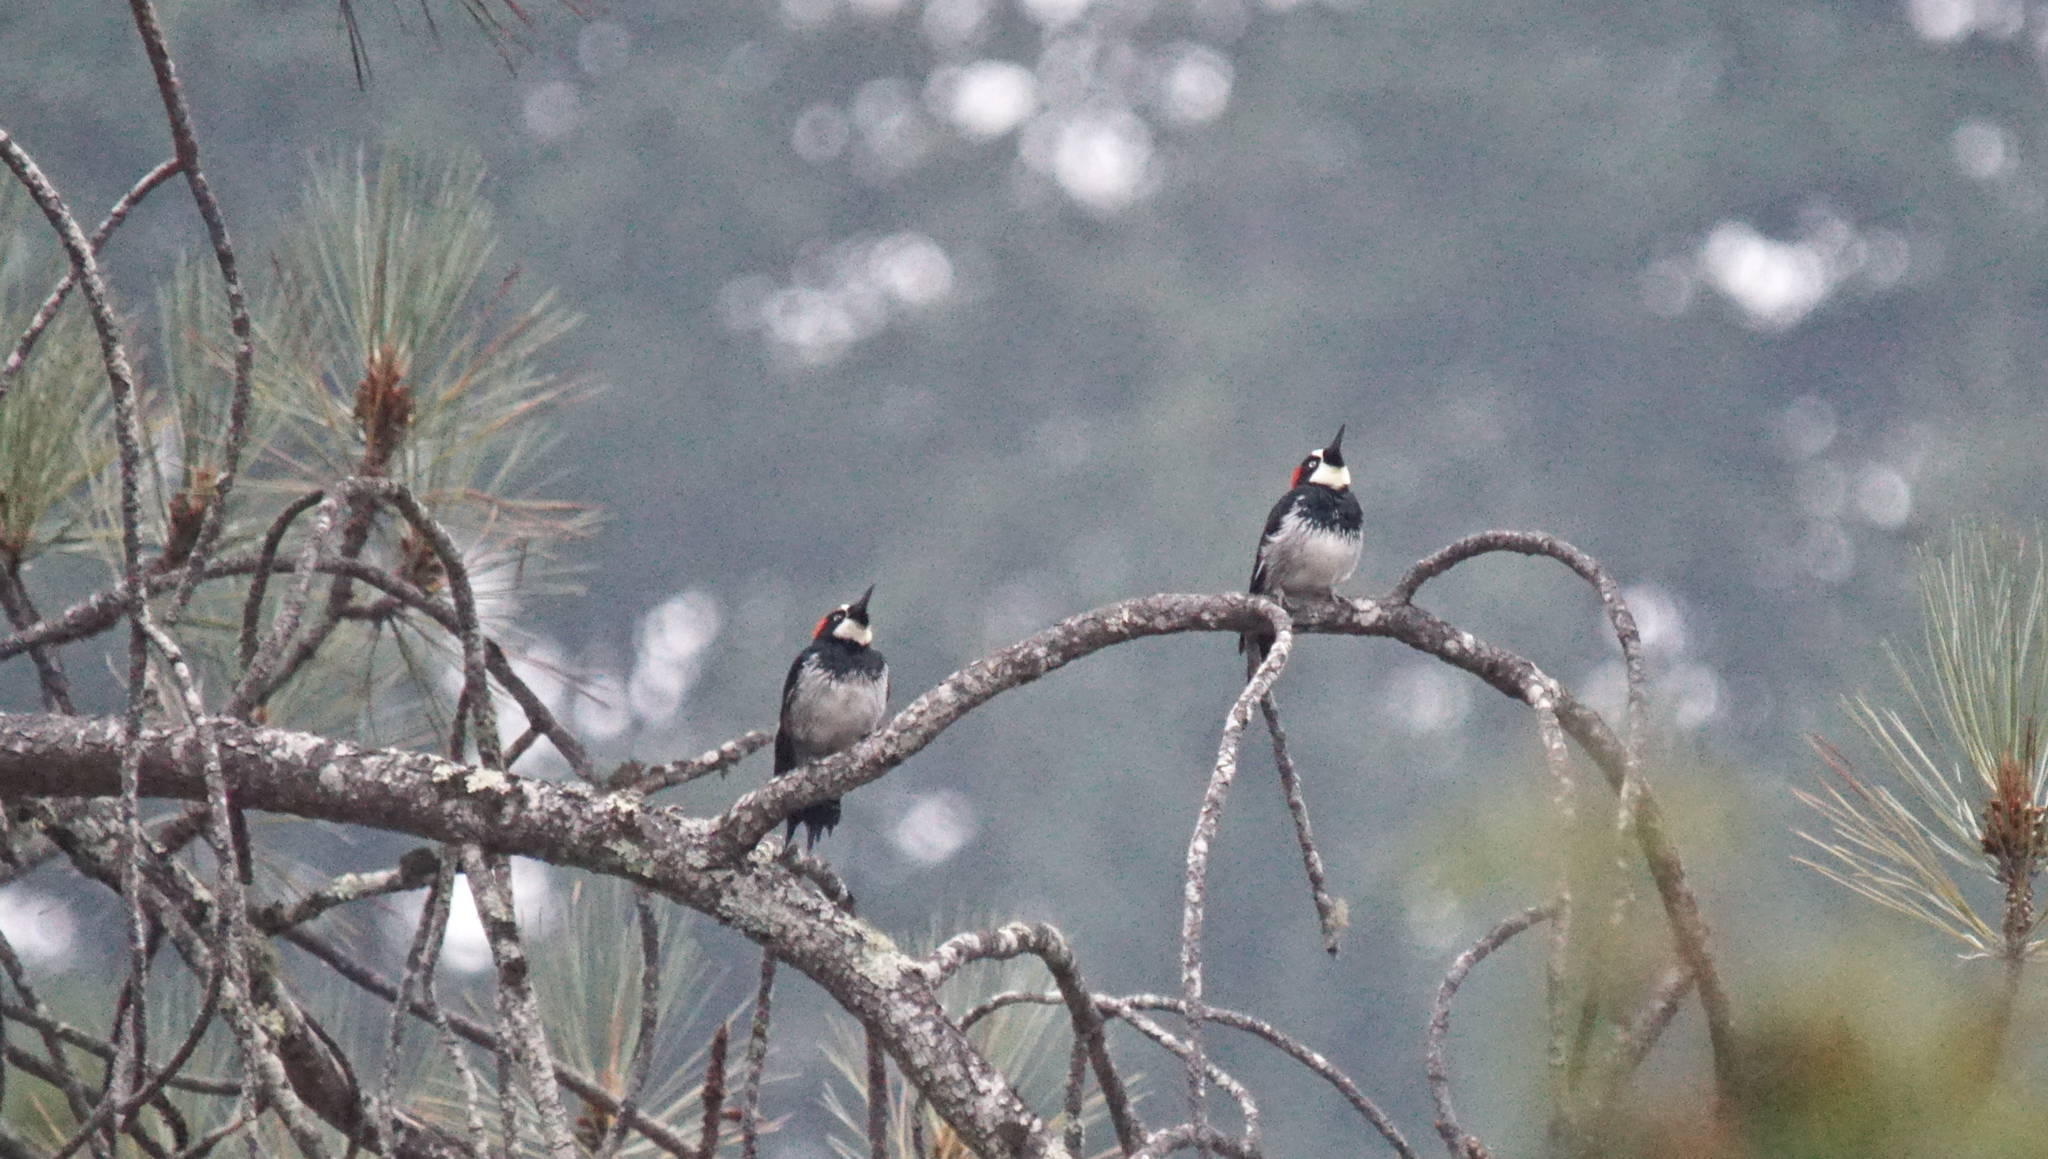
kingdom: Animalia
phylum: Chordata
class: Aves
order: Piciformes
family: Picidae
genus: Melanerpes
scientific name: Melanerpes formicivorus
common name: Acorn woodpecker
